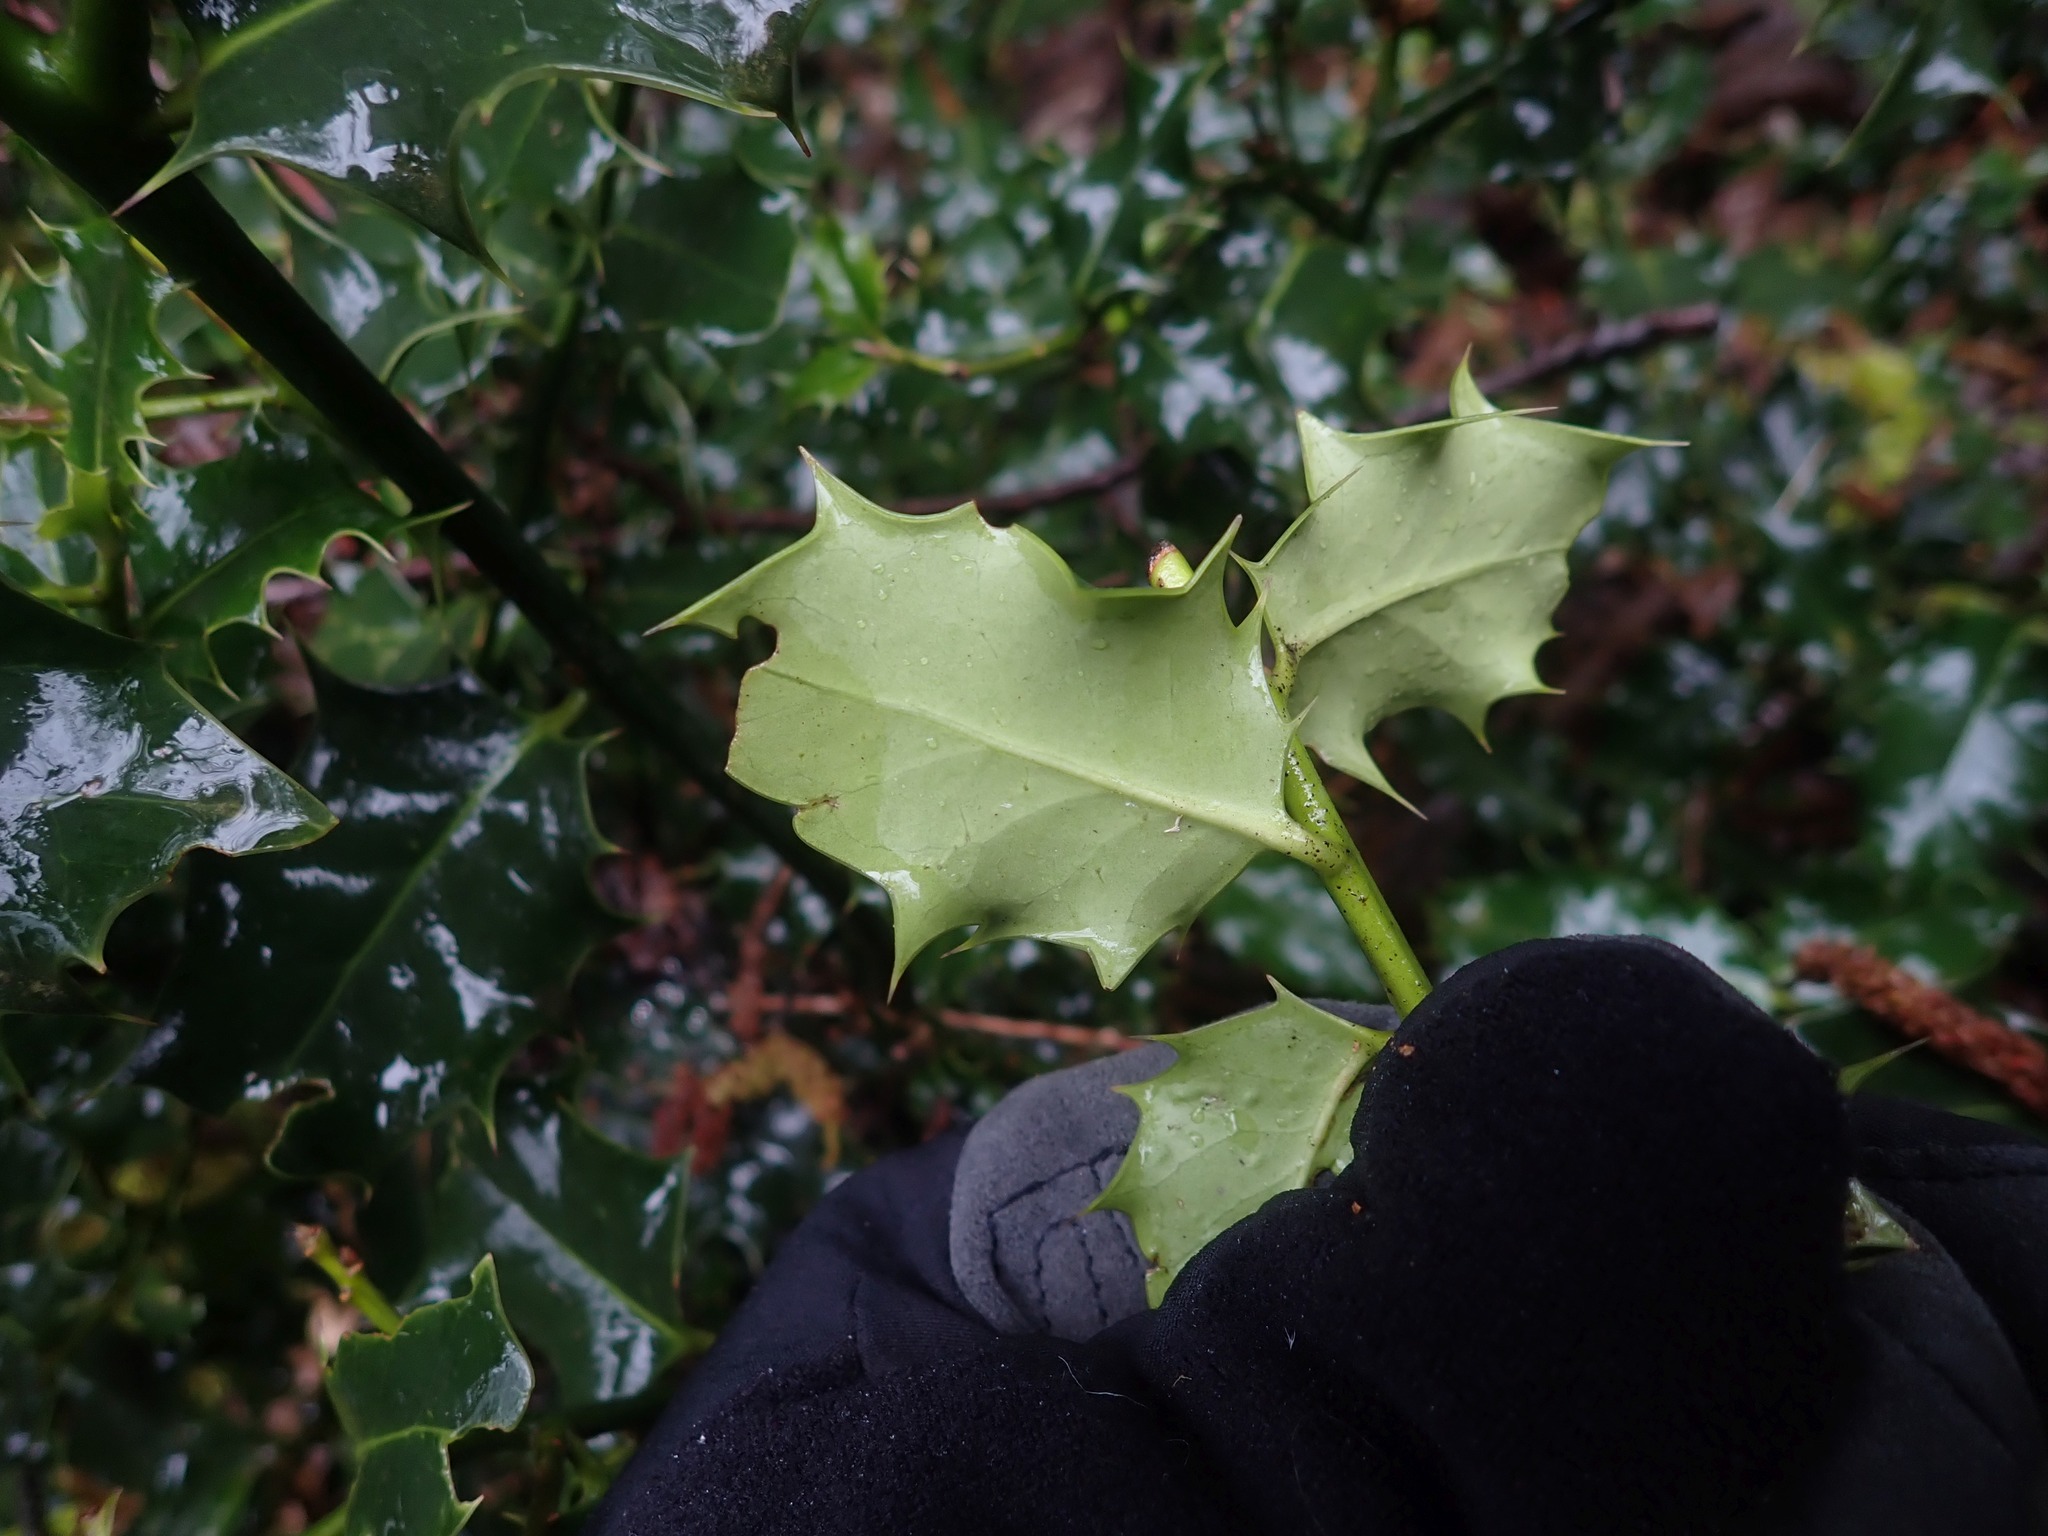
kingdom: Plantae
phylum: Tracheophyta
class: Magnoliopsida
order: Aquifoliales
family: Aquifoliaceae
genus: Ilex
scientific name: Ilex aquifolium
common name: English holly
